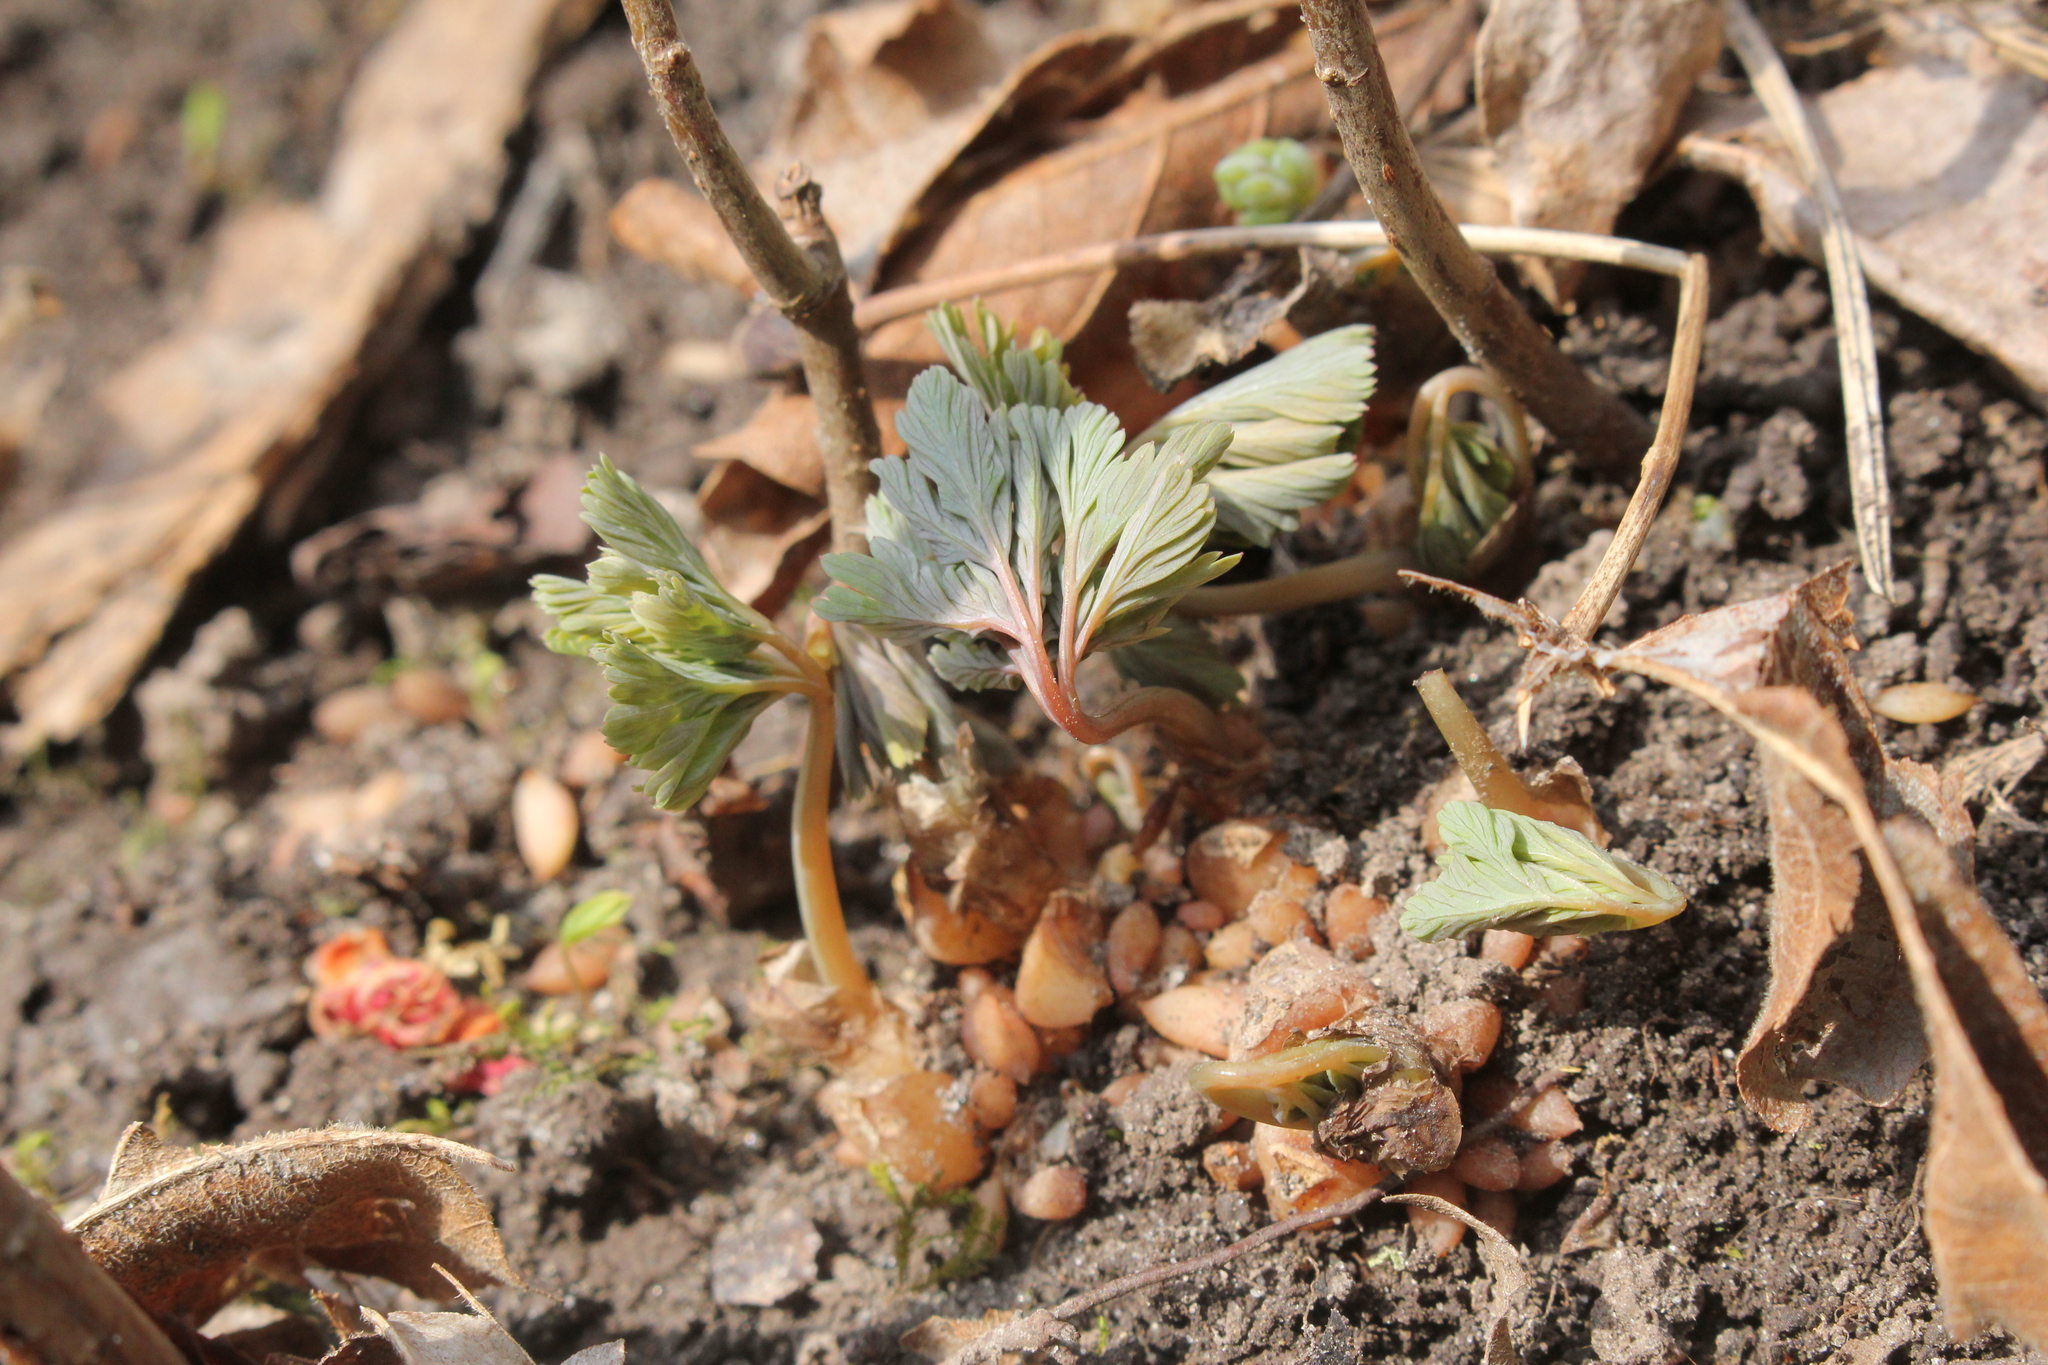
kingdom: Plantae
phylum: Tracheophyta
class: Magnoliopsida
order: Ranunculales
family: Papaveraceae
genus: Dicentra
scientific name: Dicentra canadensis
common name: Squirrel-corn
